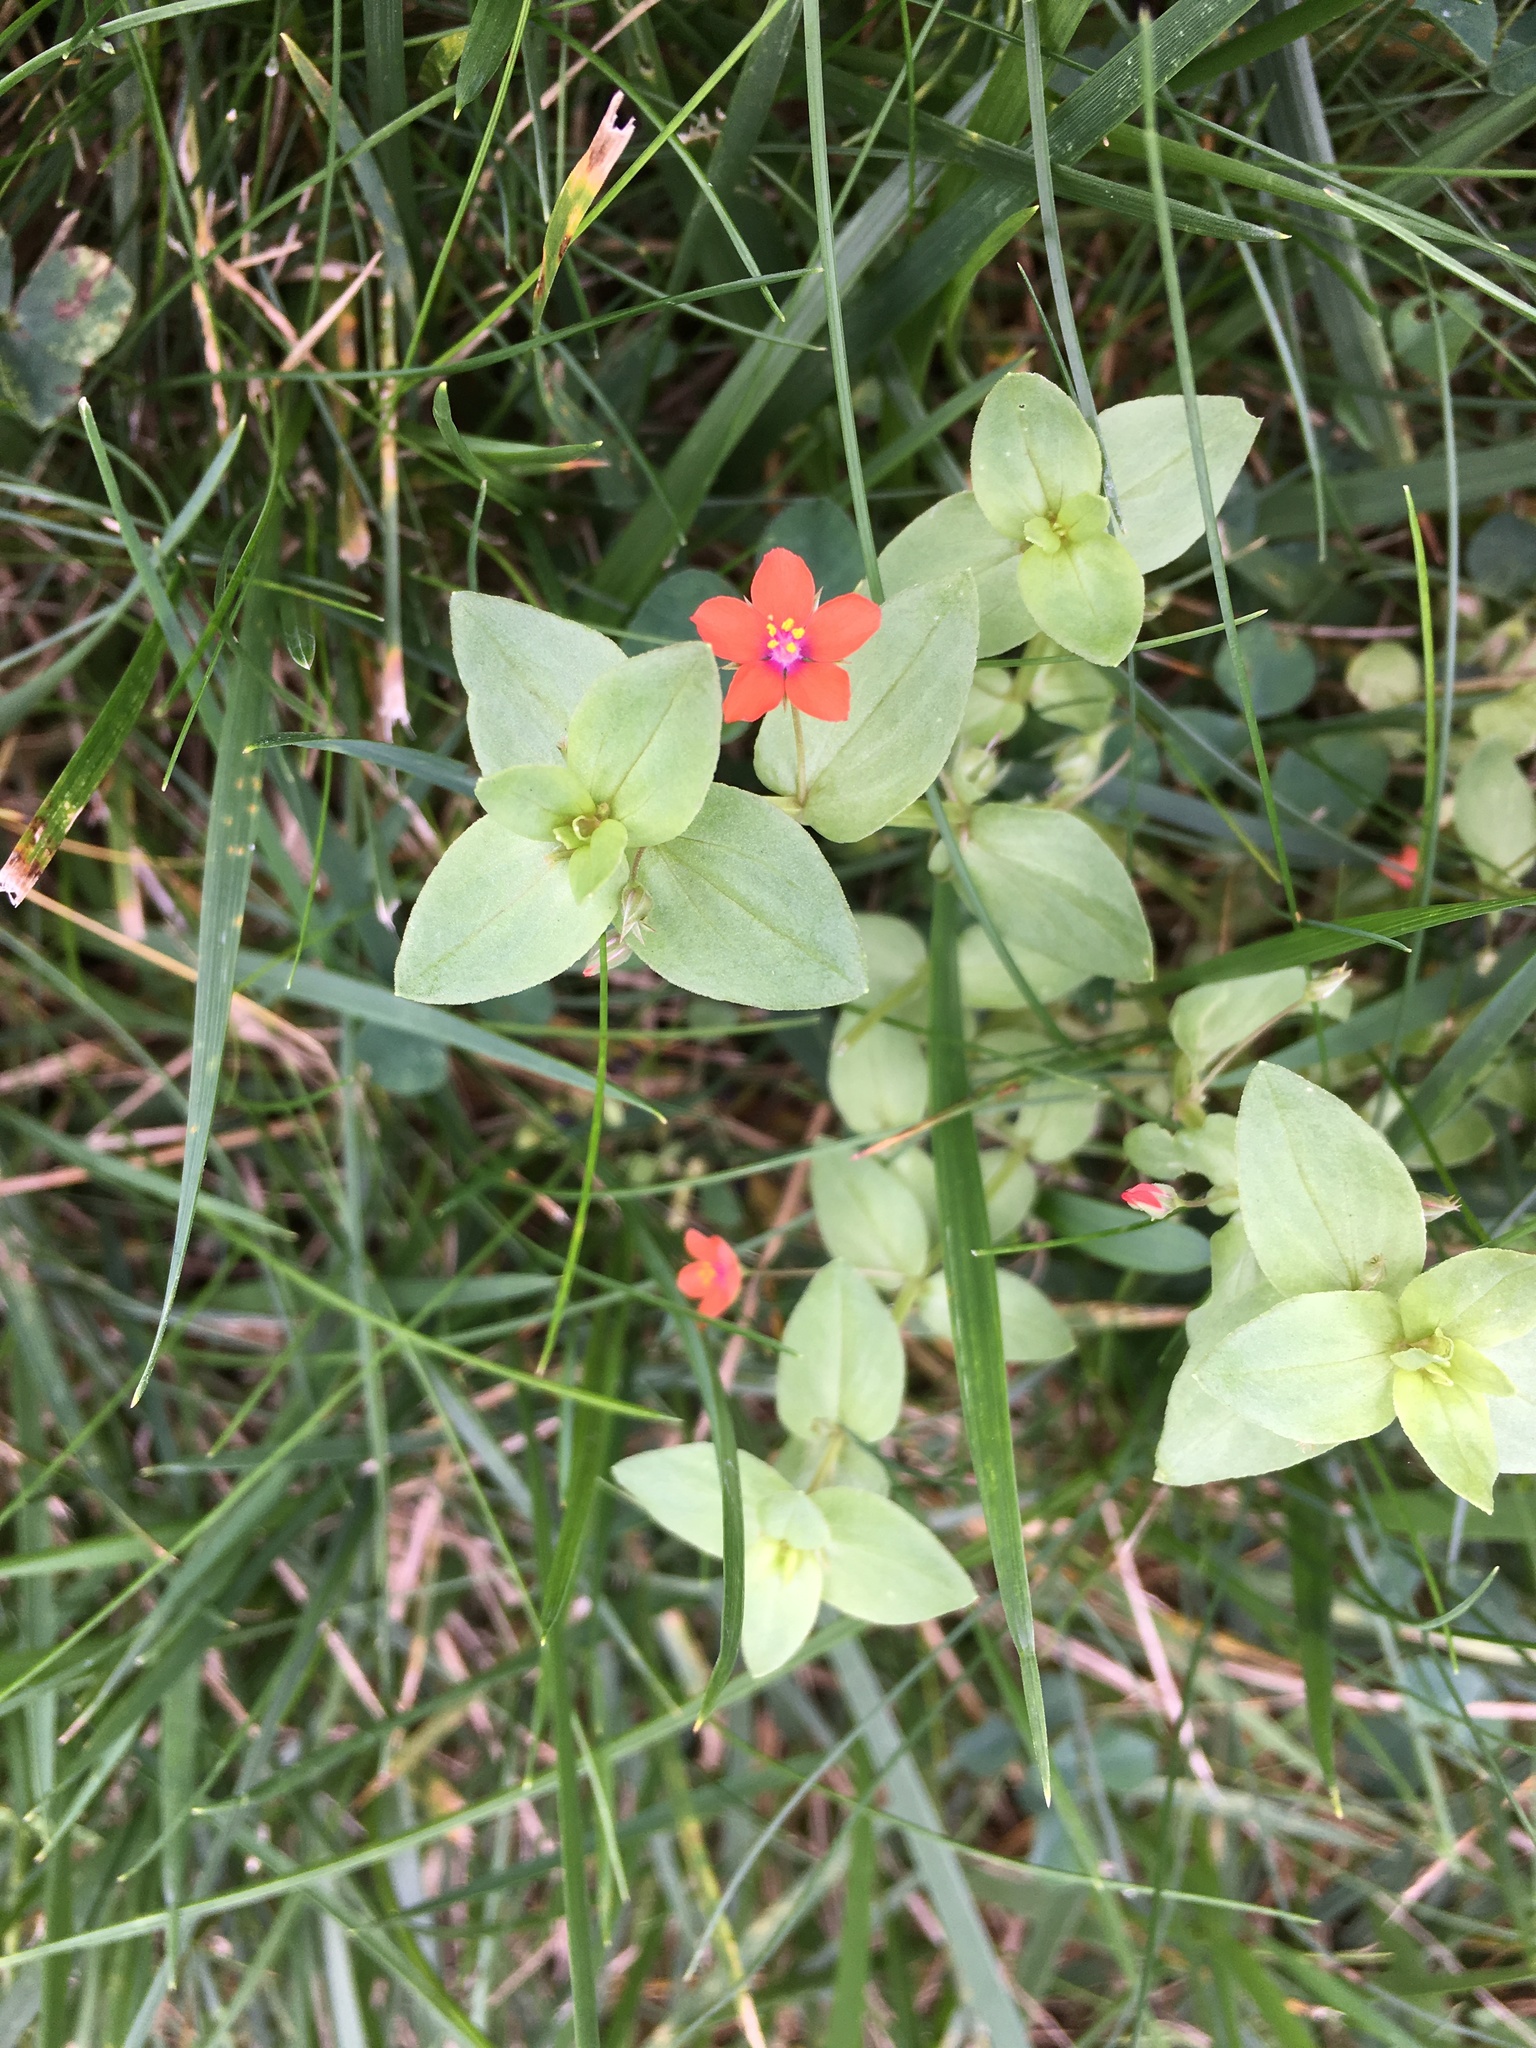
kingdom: Plantae
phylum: Tracheophyta
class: Magnoliopsida
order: Ericales
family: Primulaceae
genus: Lysimachia
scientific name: Lysimachia arvensis
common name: Scarlet pimpernel
